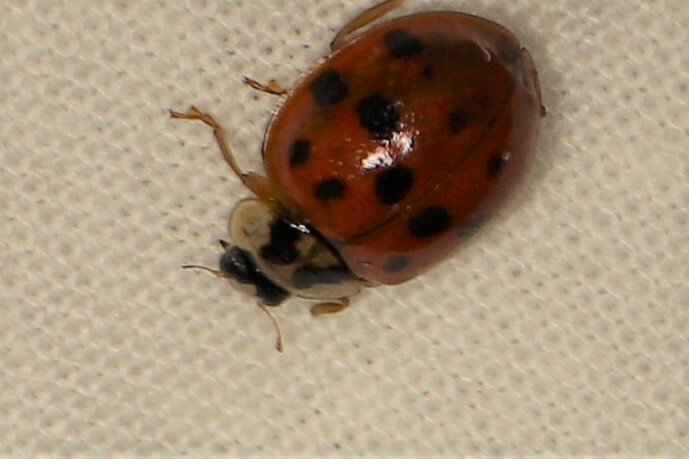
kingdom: Animalia
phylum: Arthropoda
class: Insecta
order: Coleoptera
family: Coccinellidae
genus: Harmonia
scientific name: Harmonia axyridis
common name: Harlequin ladybird
